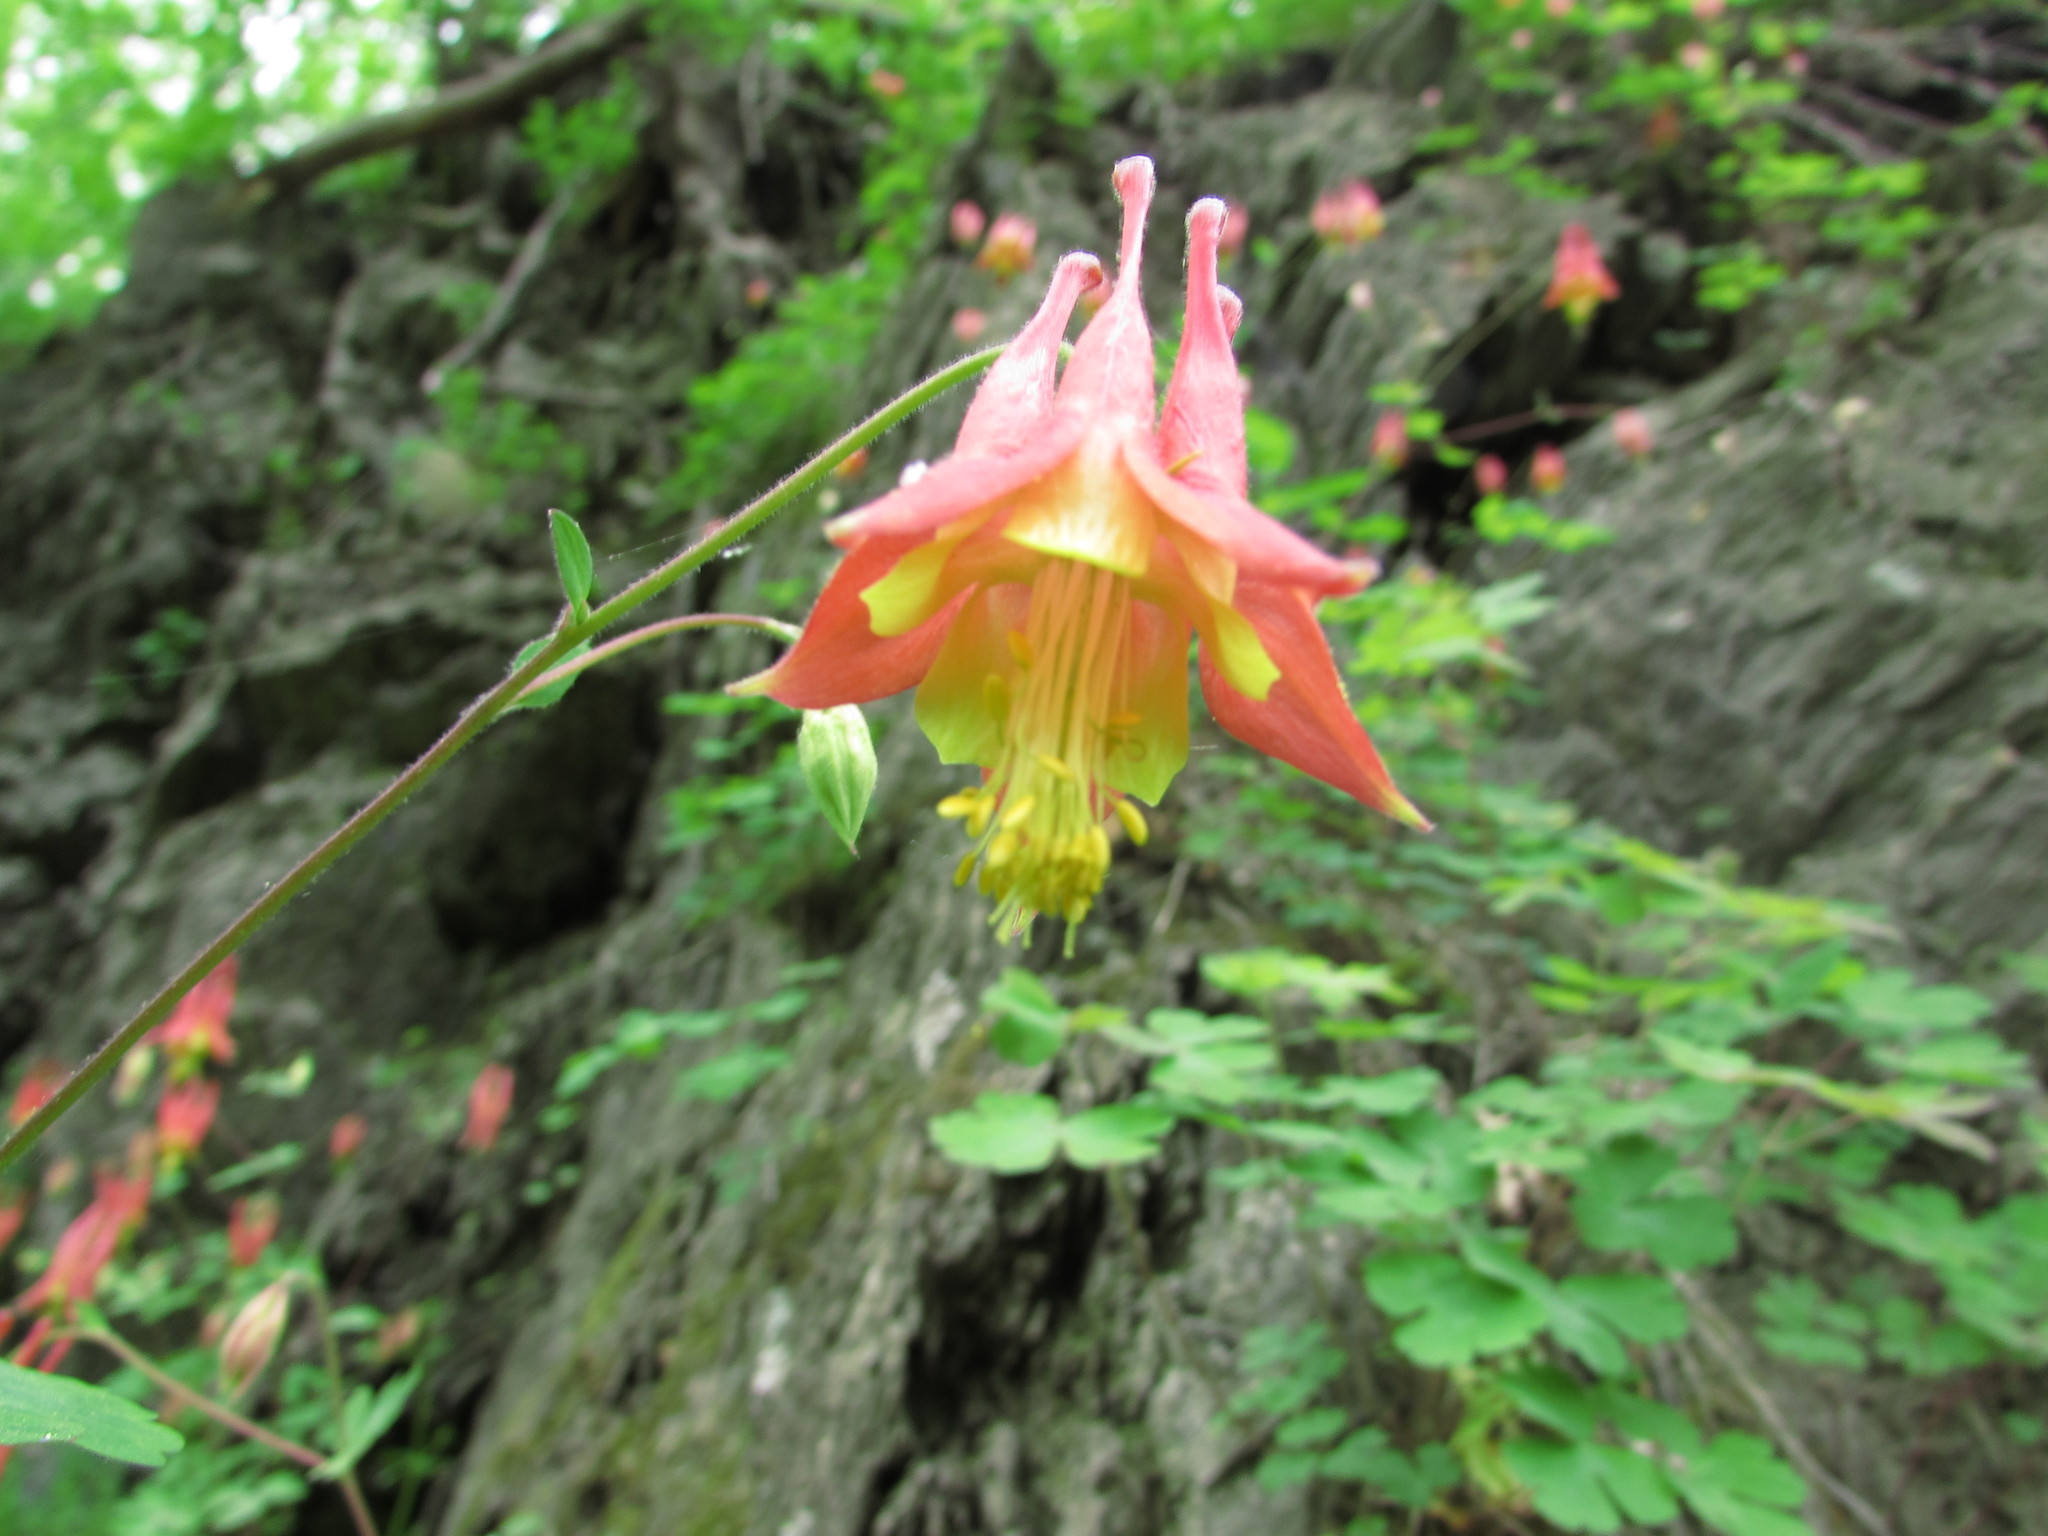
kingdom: Plantae
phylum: Tracheophyta
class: Magnoliopsida
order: Ranunculales
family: Ranunculaceae
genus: Aquilegia
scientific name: Aquilegia canadensis
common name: American columbine
